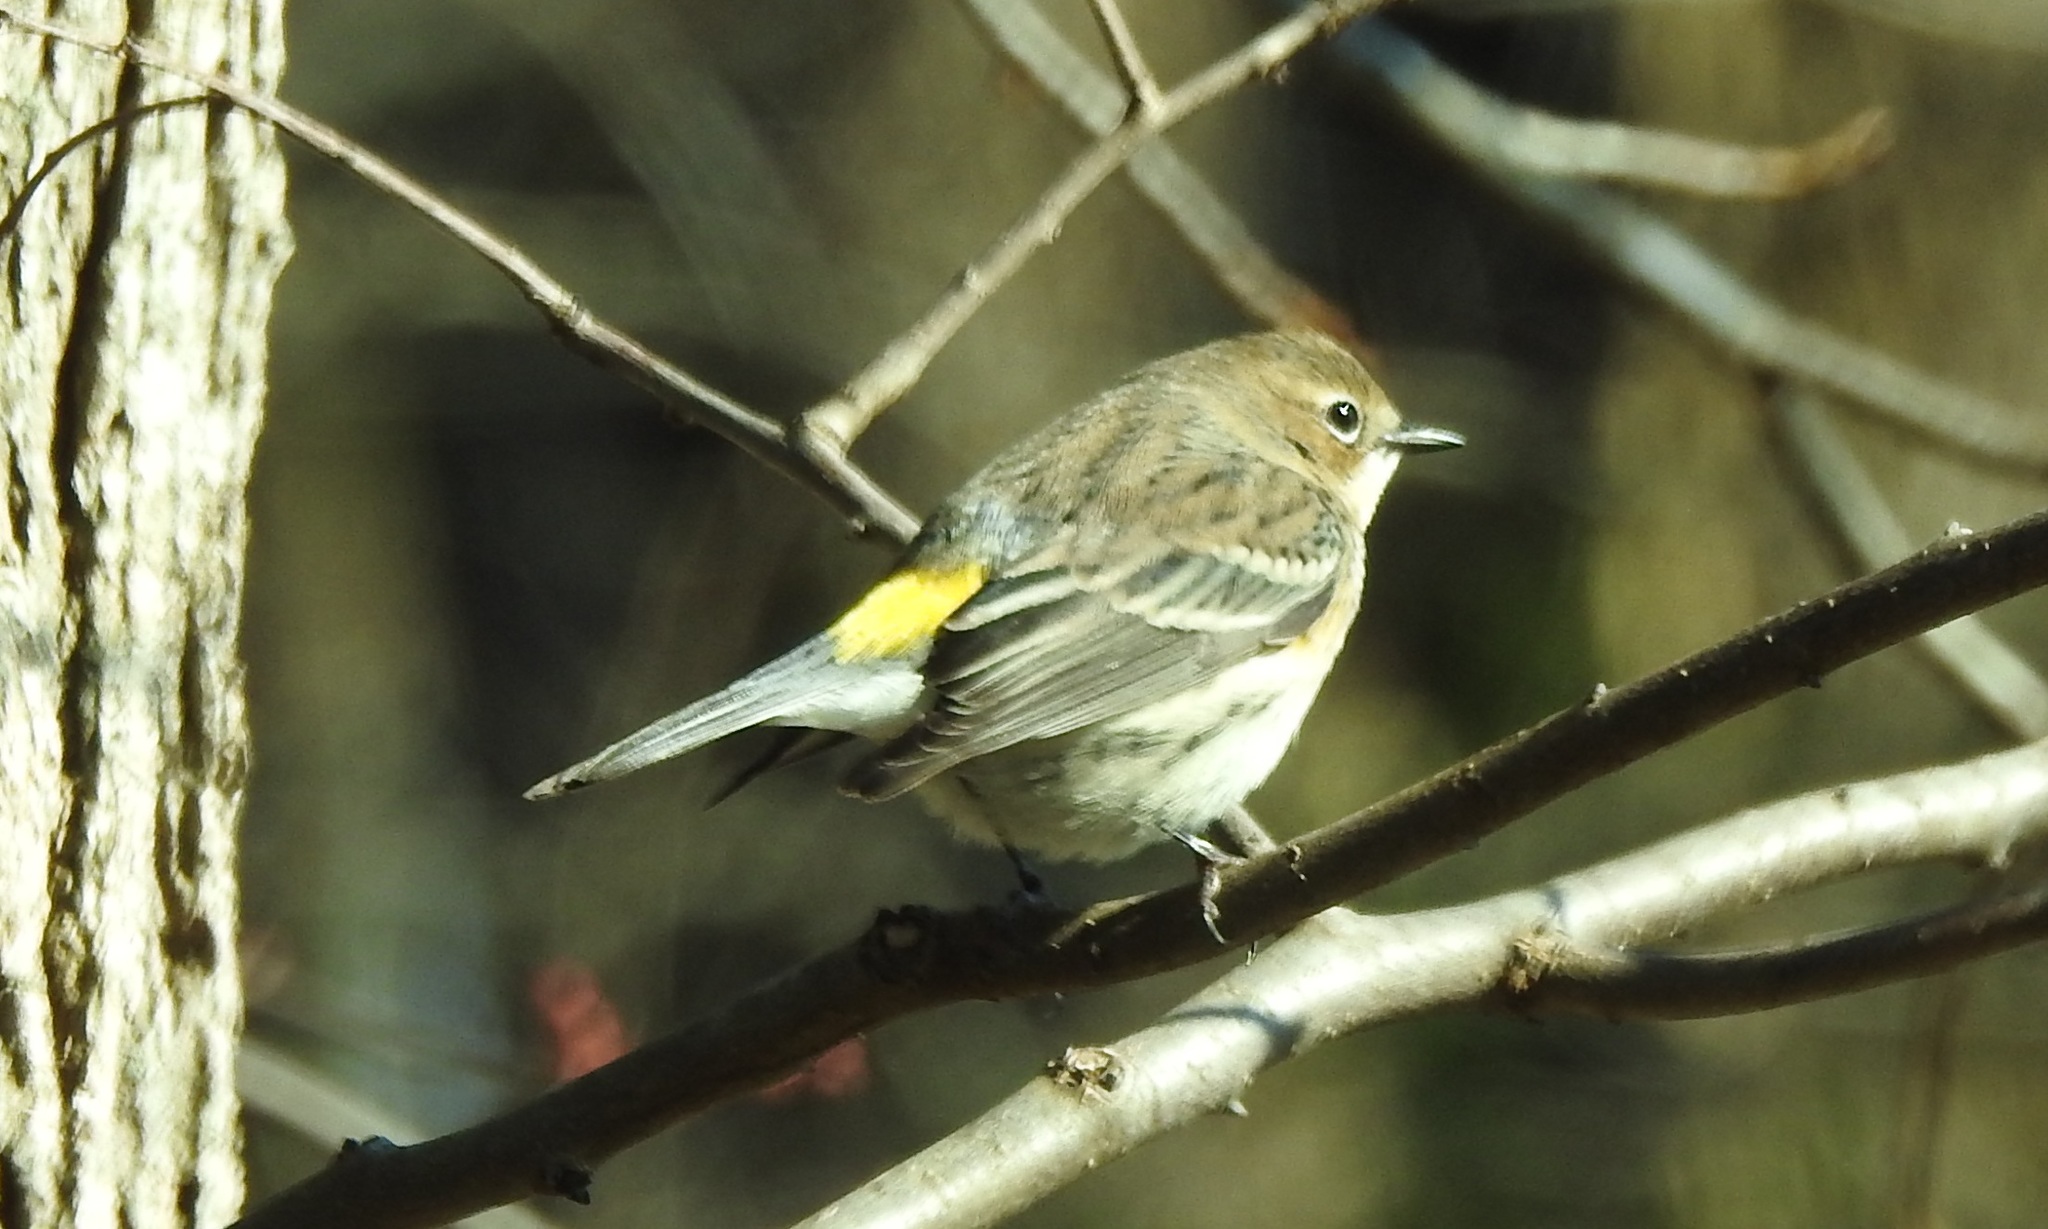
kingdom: Animalia
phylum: Chordata
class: Aves
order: Passeriformes
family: Parulidae
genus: Setophaga
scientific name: Setophaga coronata
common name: Myrtle warbler
